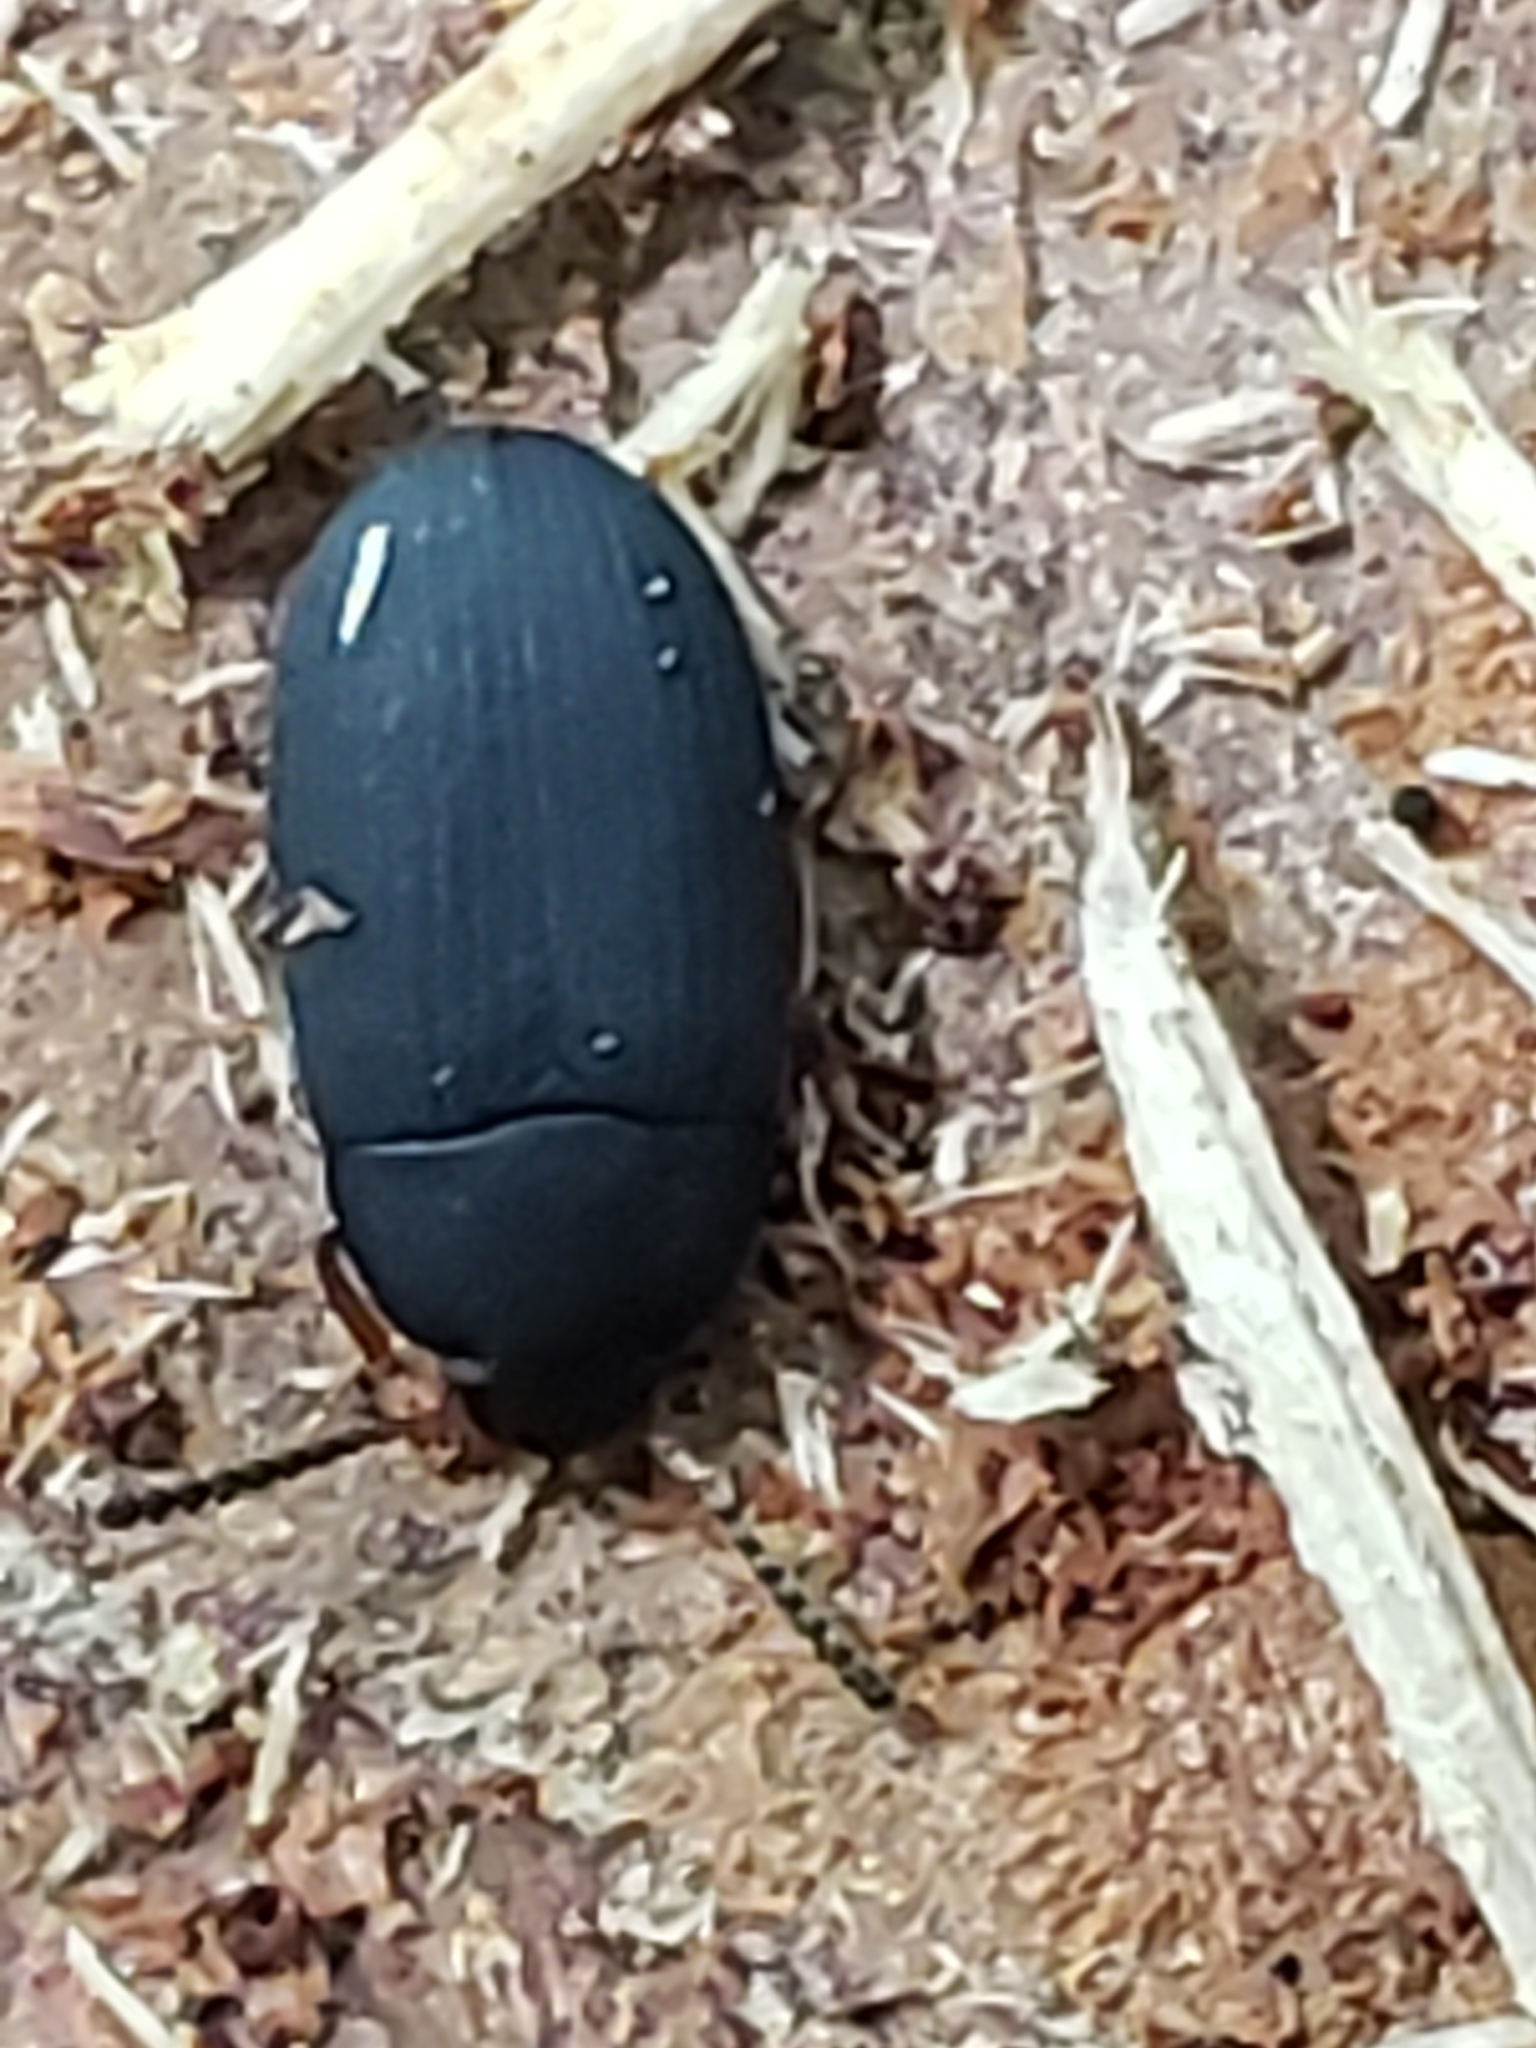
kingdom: Animalia
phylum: Arthropoda
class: Insecta
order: Coleoptera
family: Tenebrionidae
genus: Platydema
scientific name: Platydema flavipes
